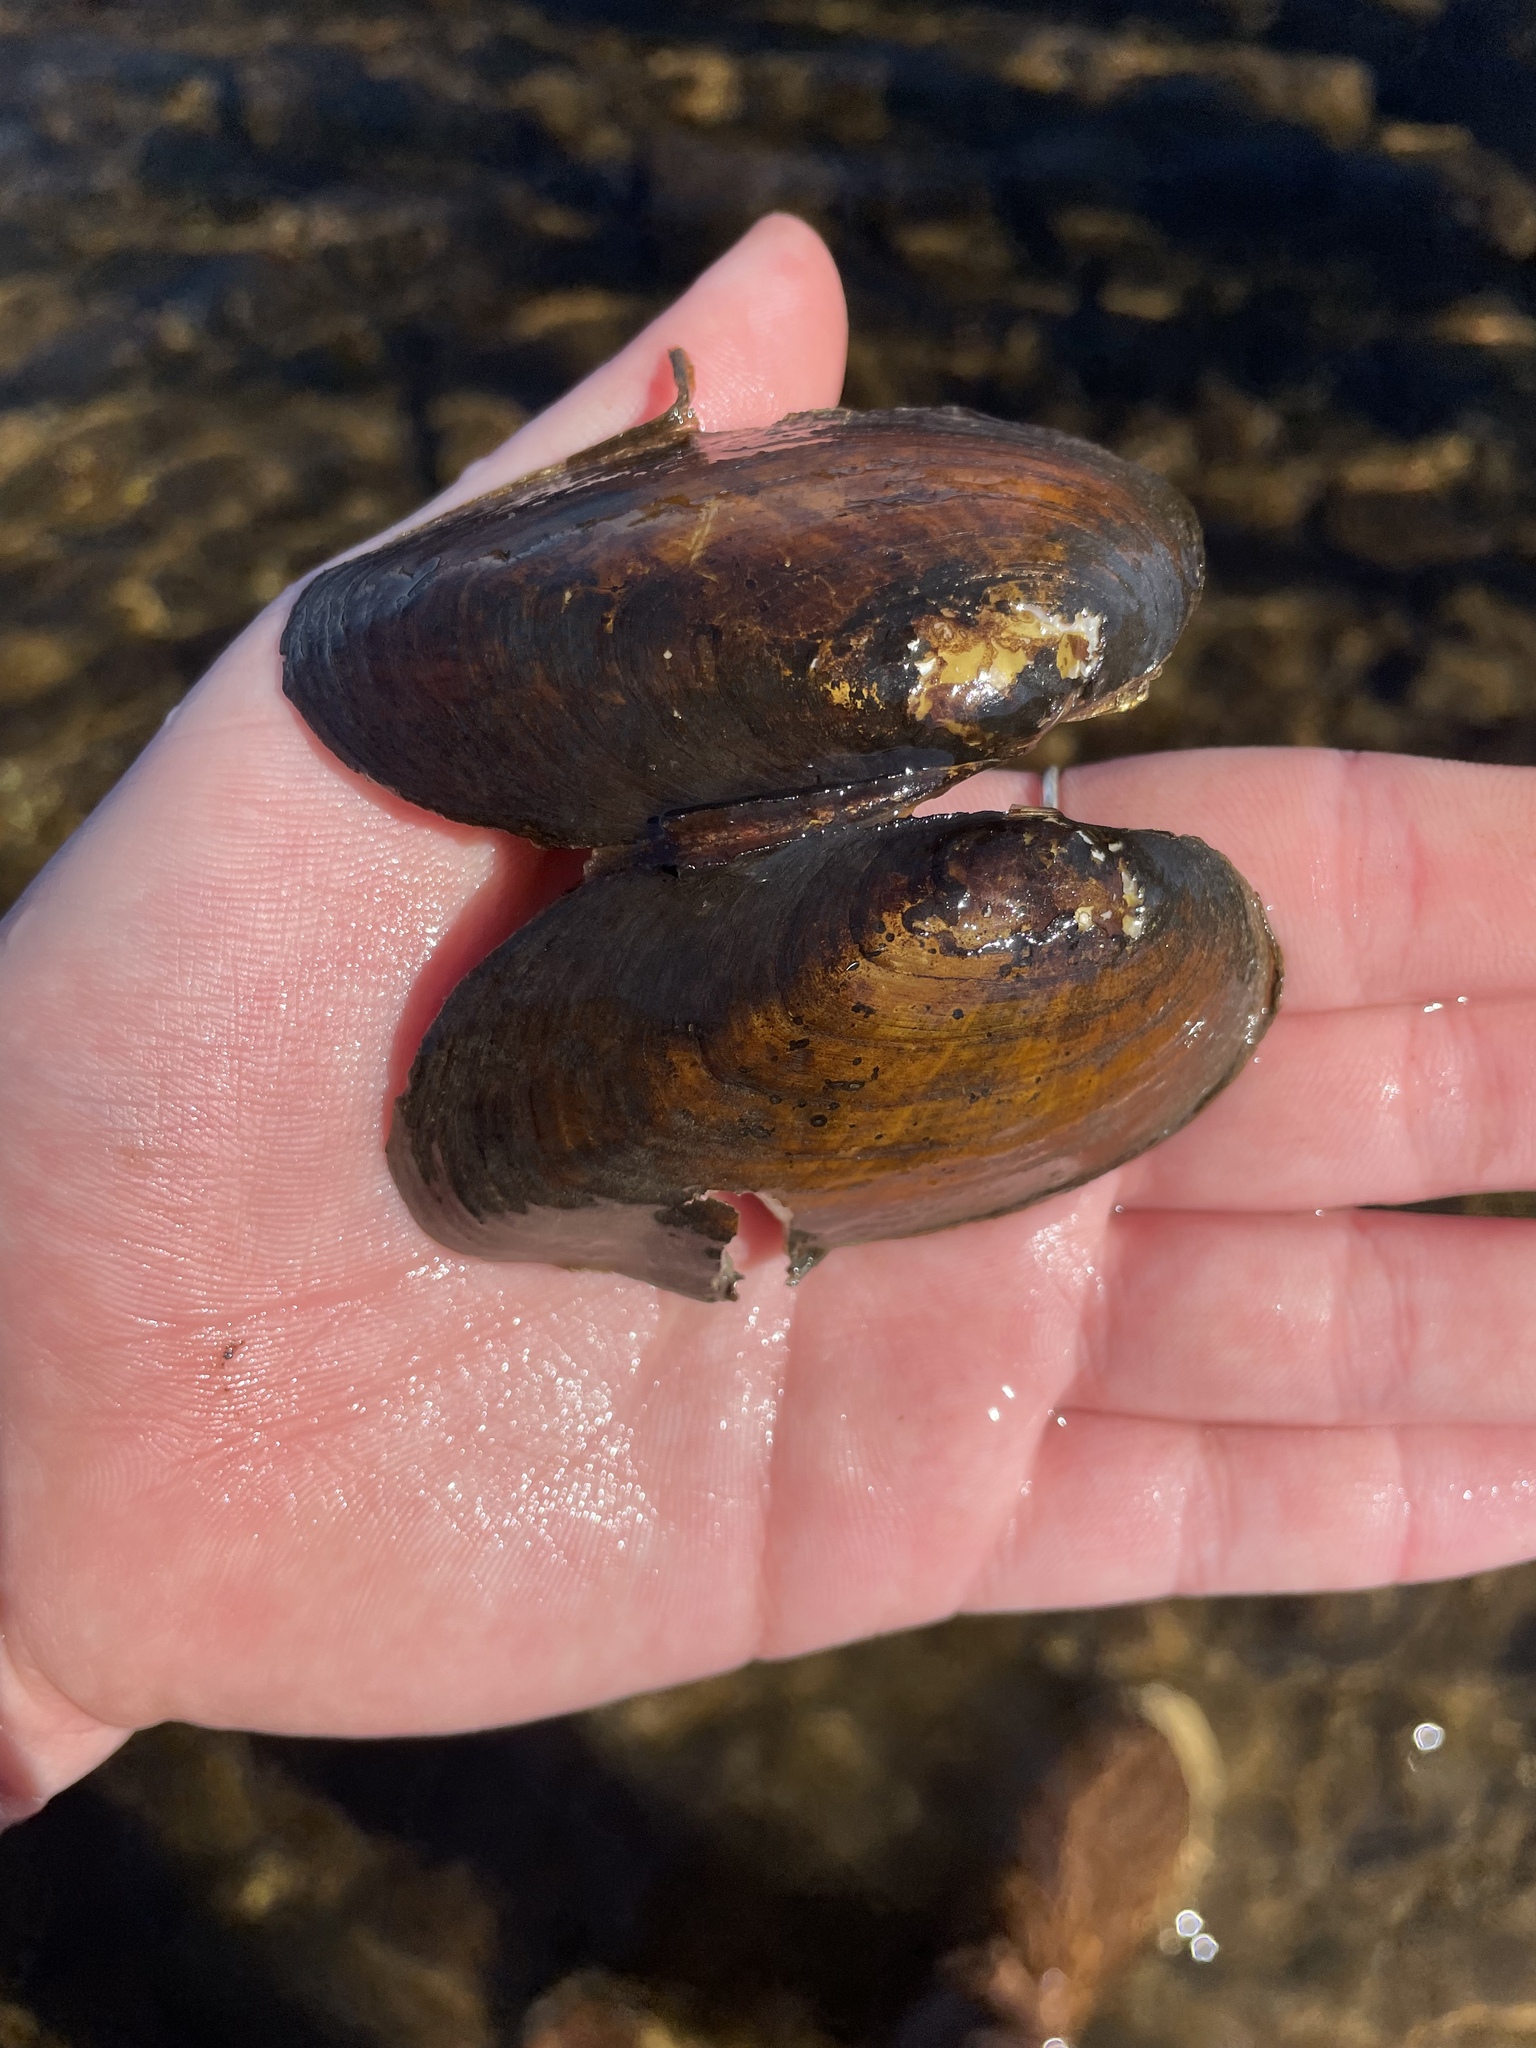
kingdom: Animalia
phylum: Mollusca
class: Bivalvia
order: Unionida
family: Unionidae
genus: Elliptio
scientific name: Elliptio complanata
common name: Eastern elliptio
